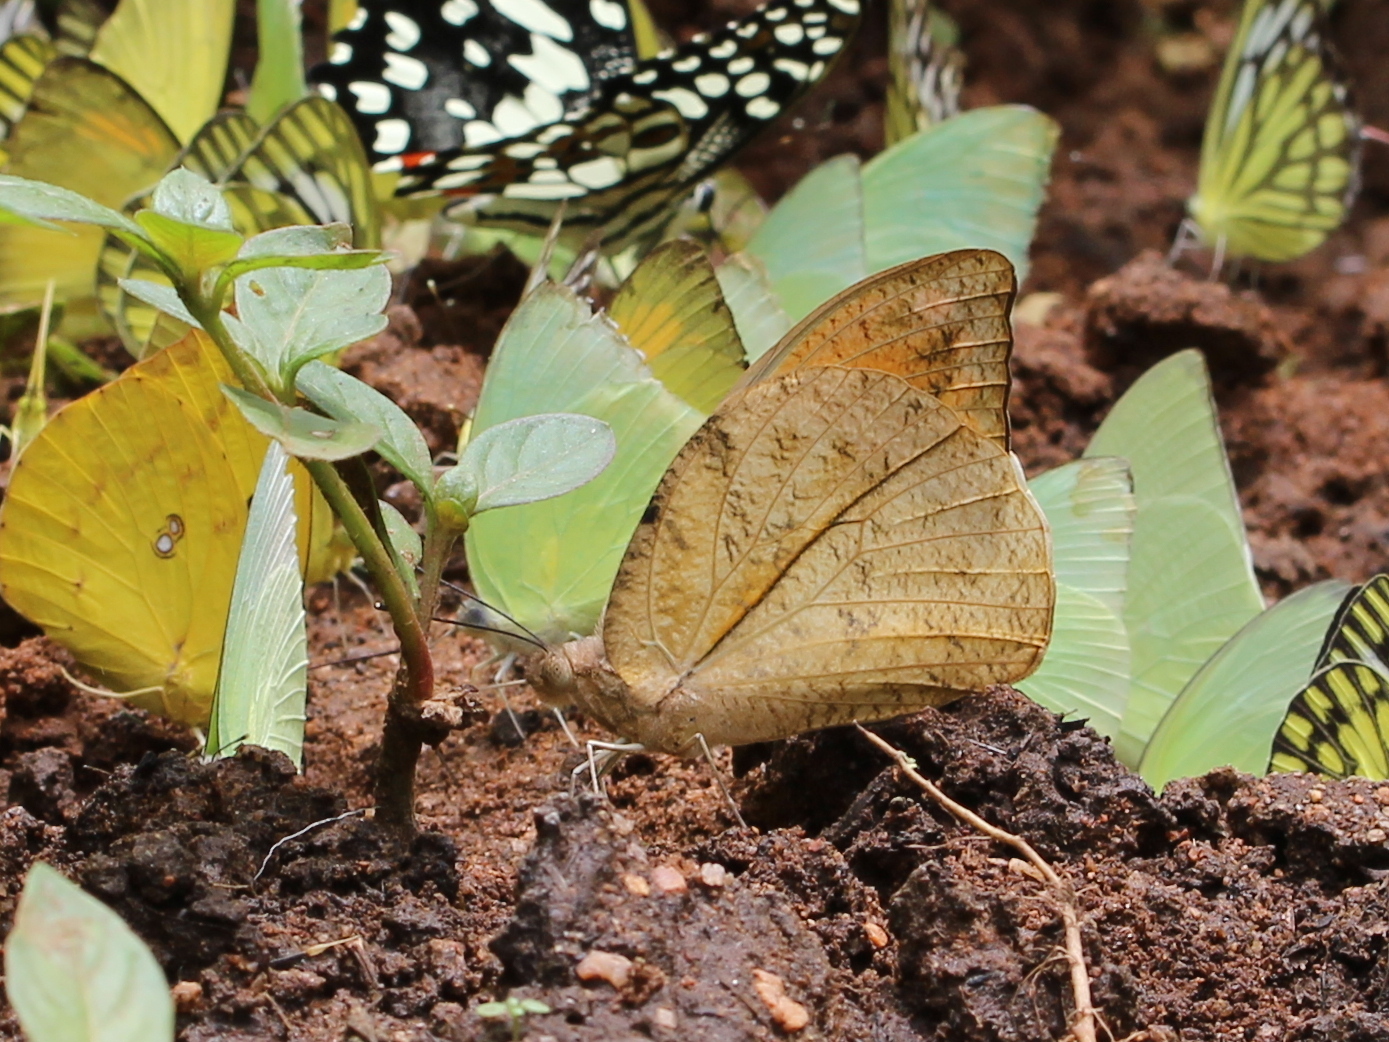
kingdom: Animalia
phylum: Arthropoda
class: Insecta
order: Lepidoptera
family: Pieridae
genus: Hebomoia
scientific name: Hebomoia glaucippe
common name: Great orange tip
